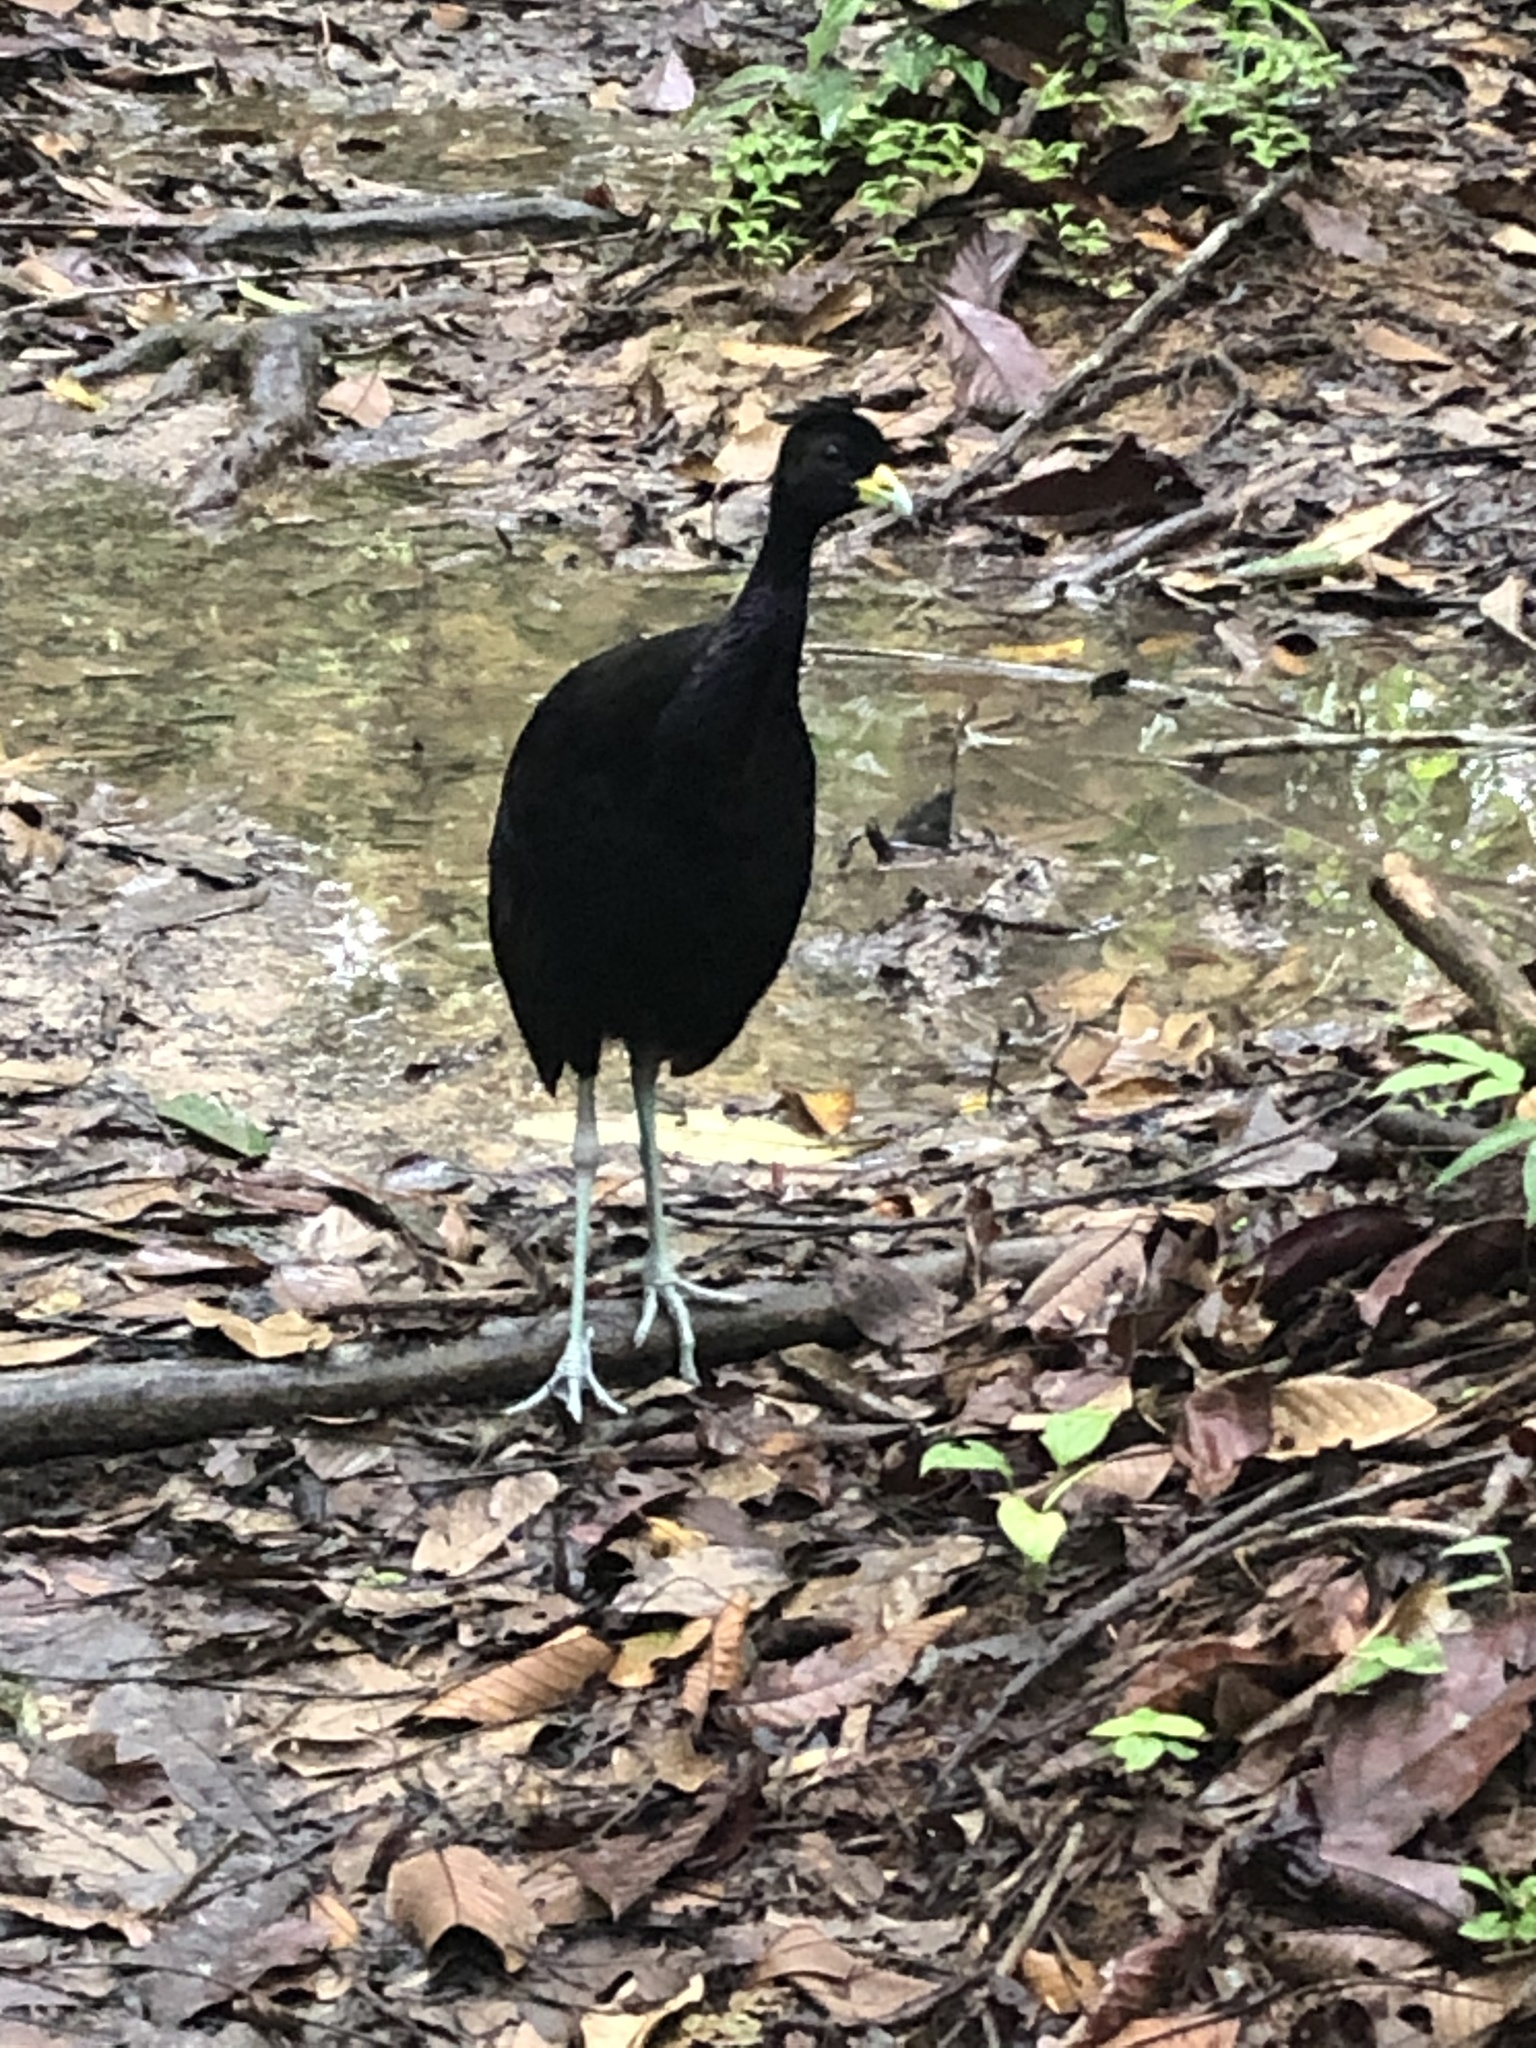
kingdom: Animalia
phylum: Chordata
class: Aves
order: Gruiformes
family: Psophiidae
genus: Psophia
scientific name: Psophia leucoptera
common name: Pale-winged trumpeter
